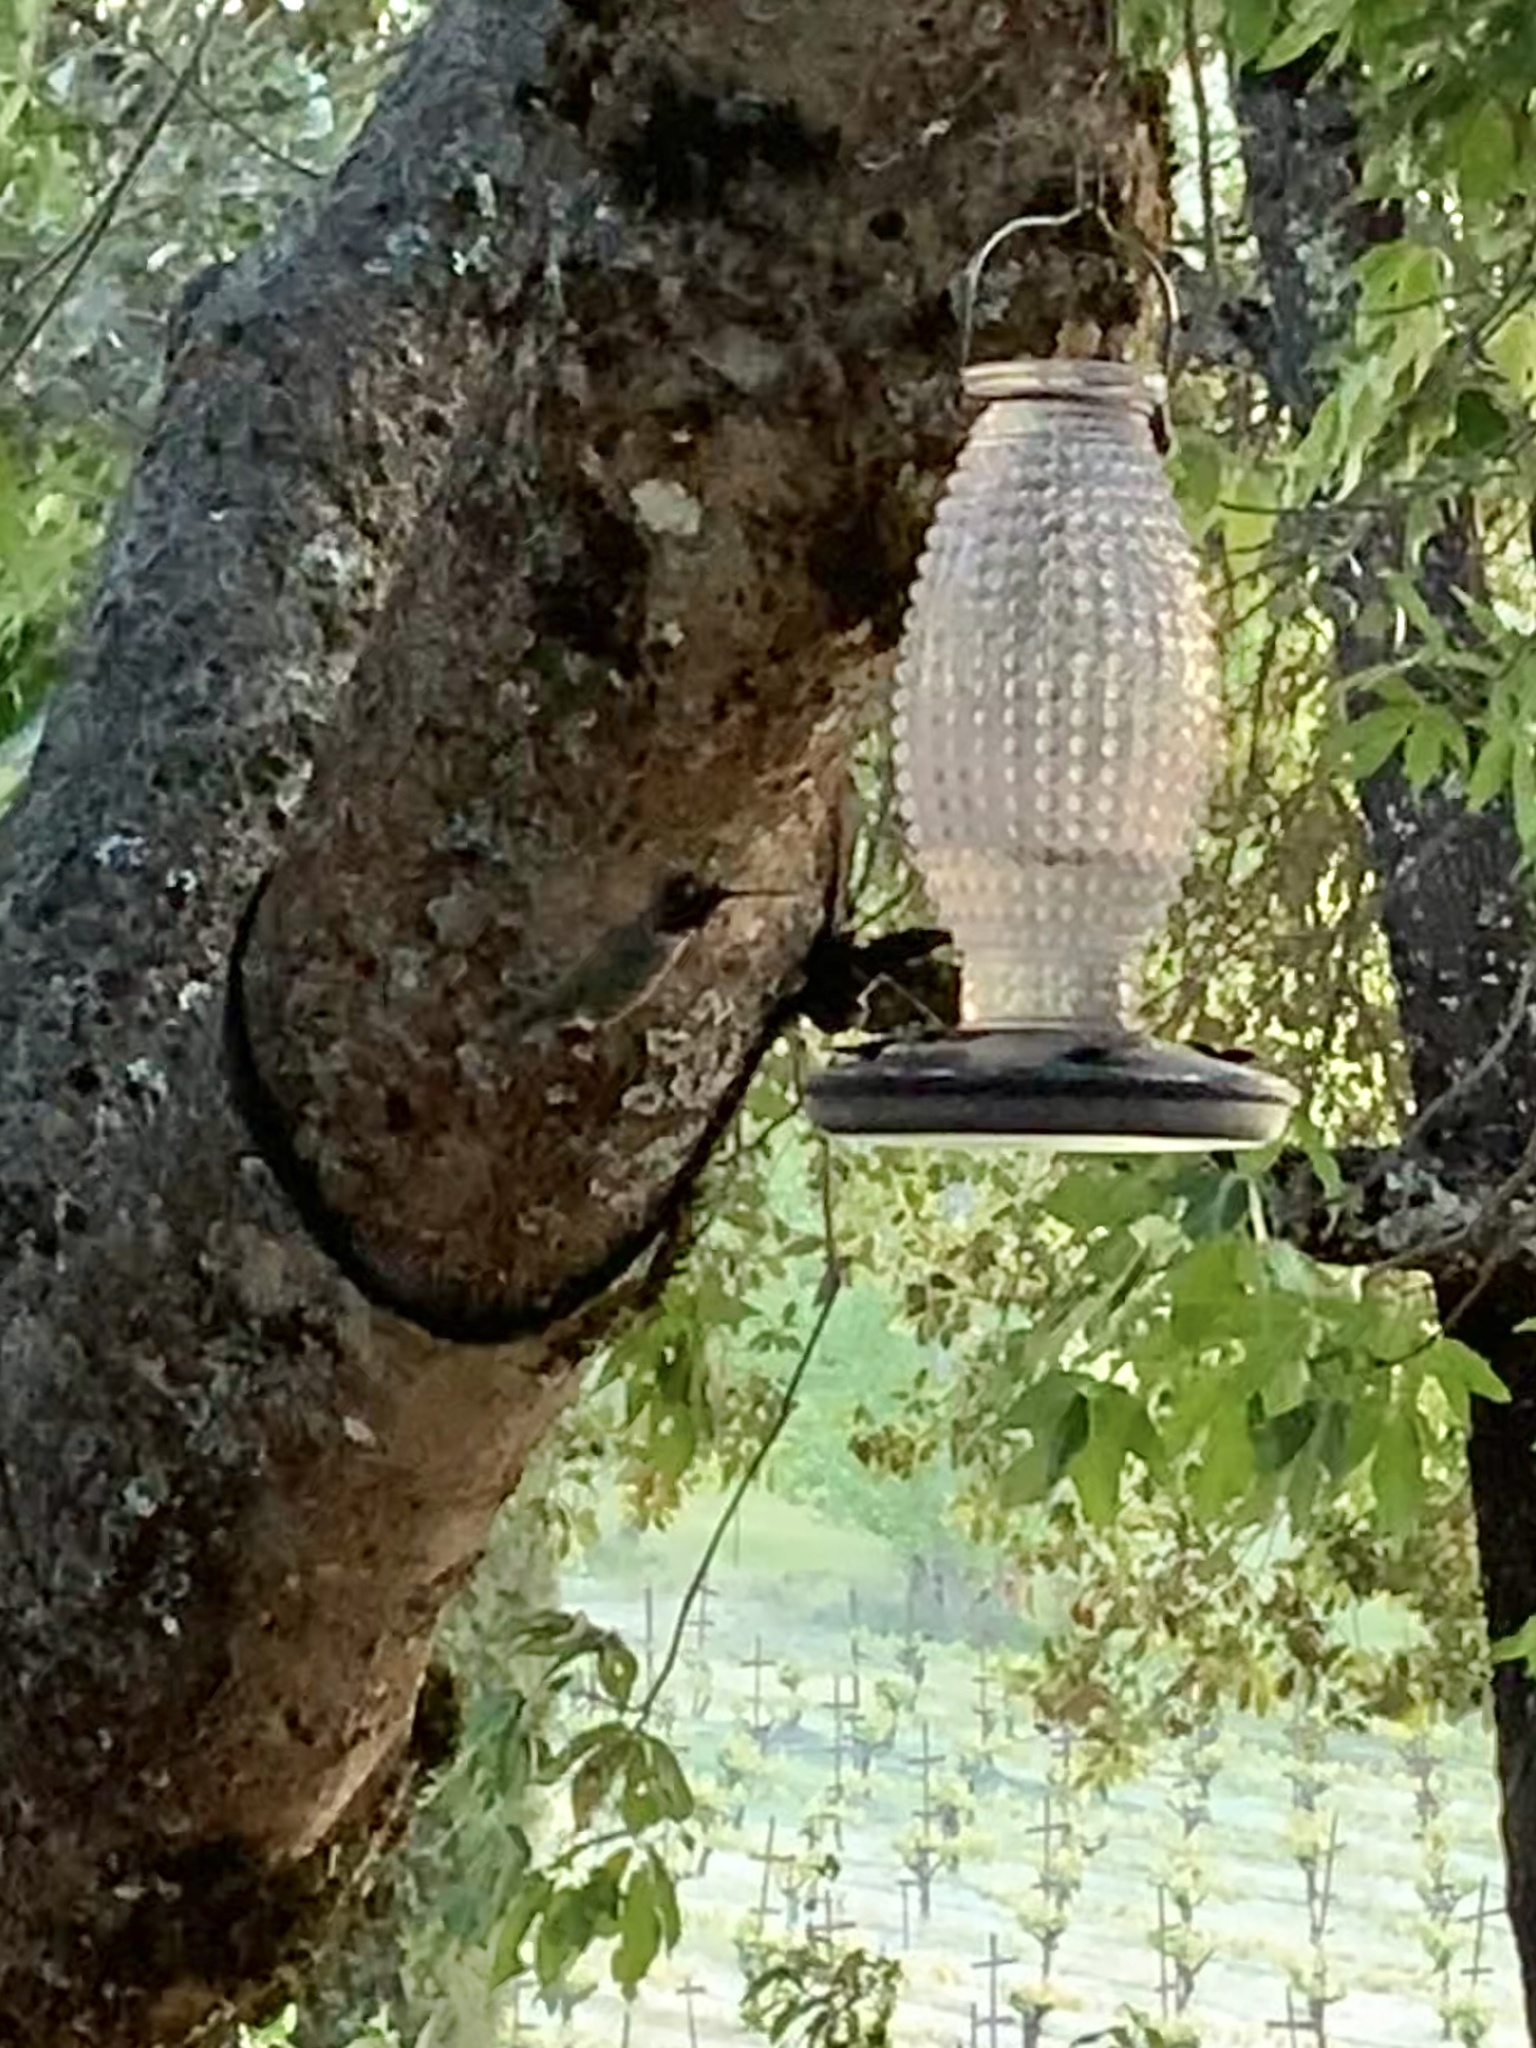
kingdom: Animalia
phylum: Chordata
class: Aves
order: Apodiformes
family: Trochilidae
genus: Calypte
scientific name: Calypte anna
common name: Anna's hummingbird
